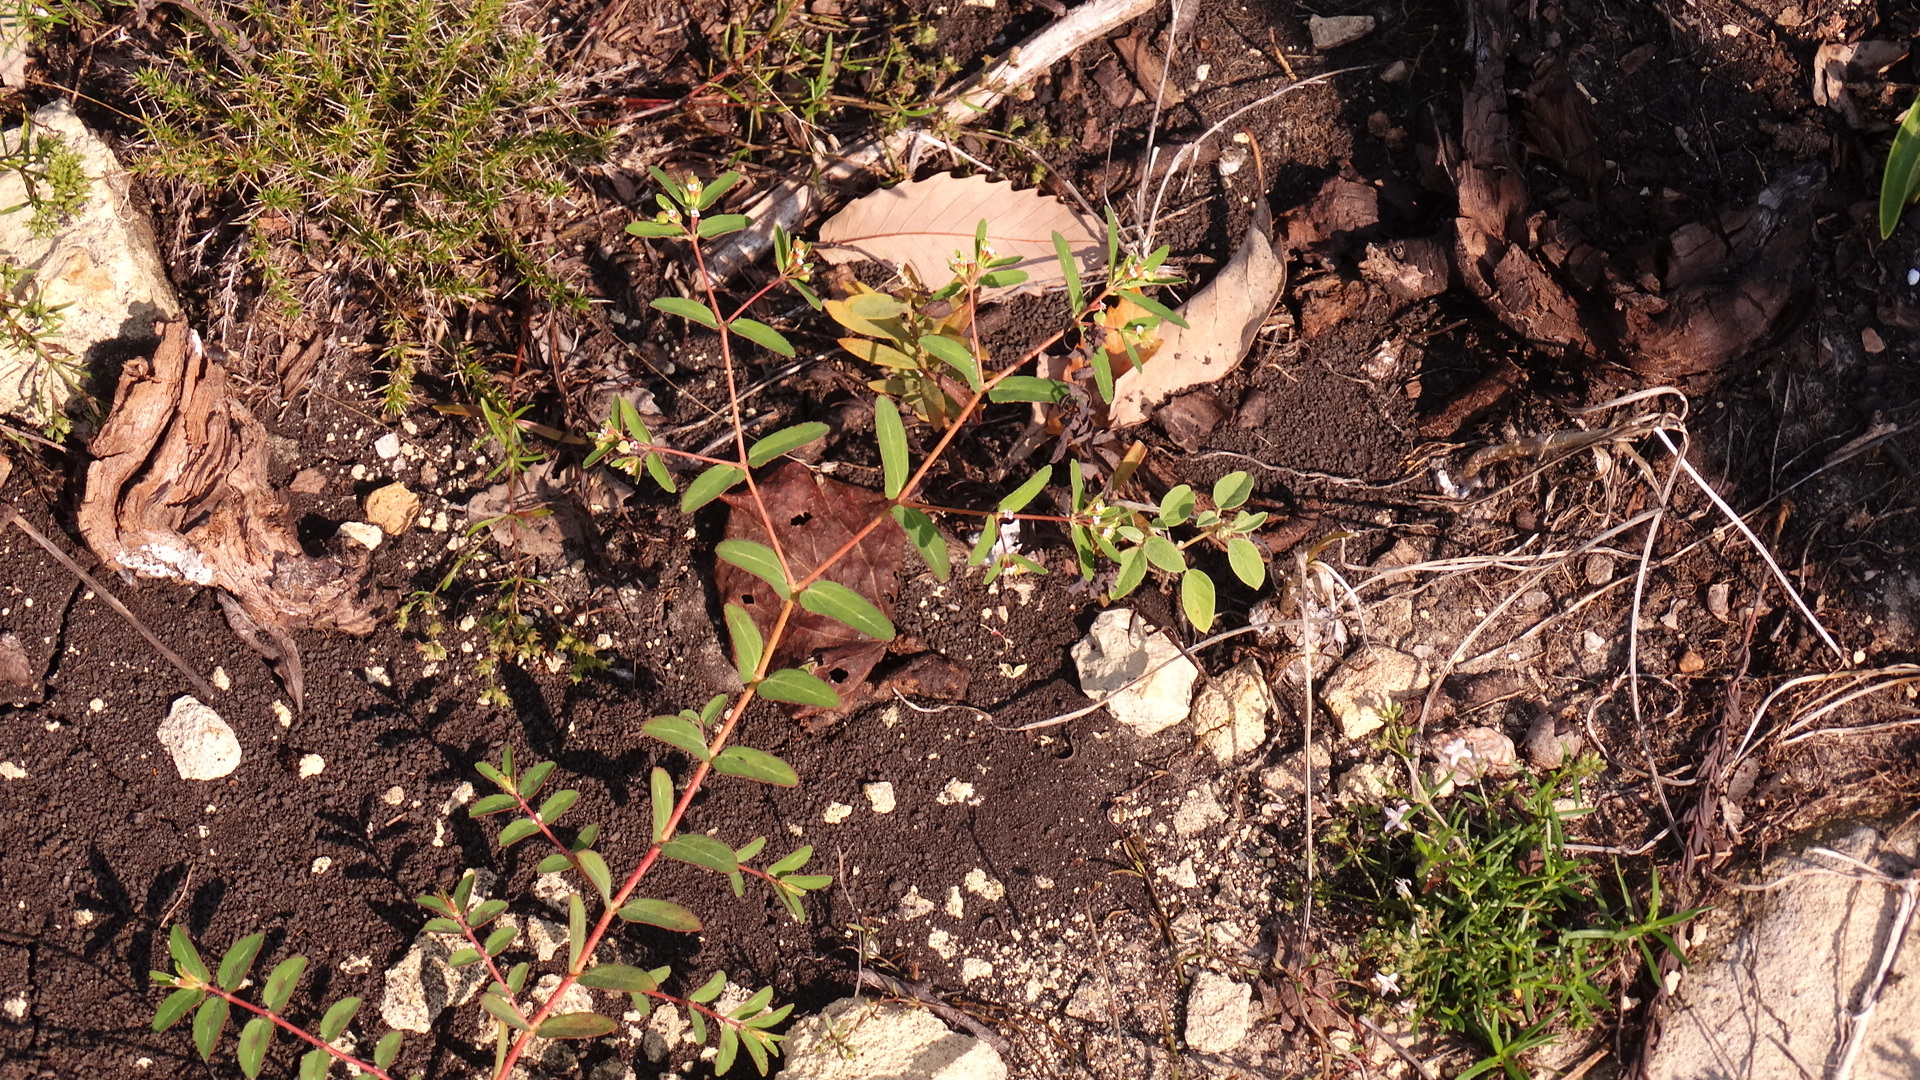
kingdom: Plantae
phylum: Tracheophyta
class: Magnoliopsida
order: Malpighiales
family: Euphorbiaceae
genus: Euphorbia
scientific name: Euphorbia nutans
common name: Eyebane
